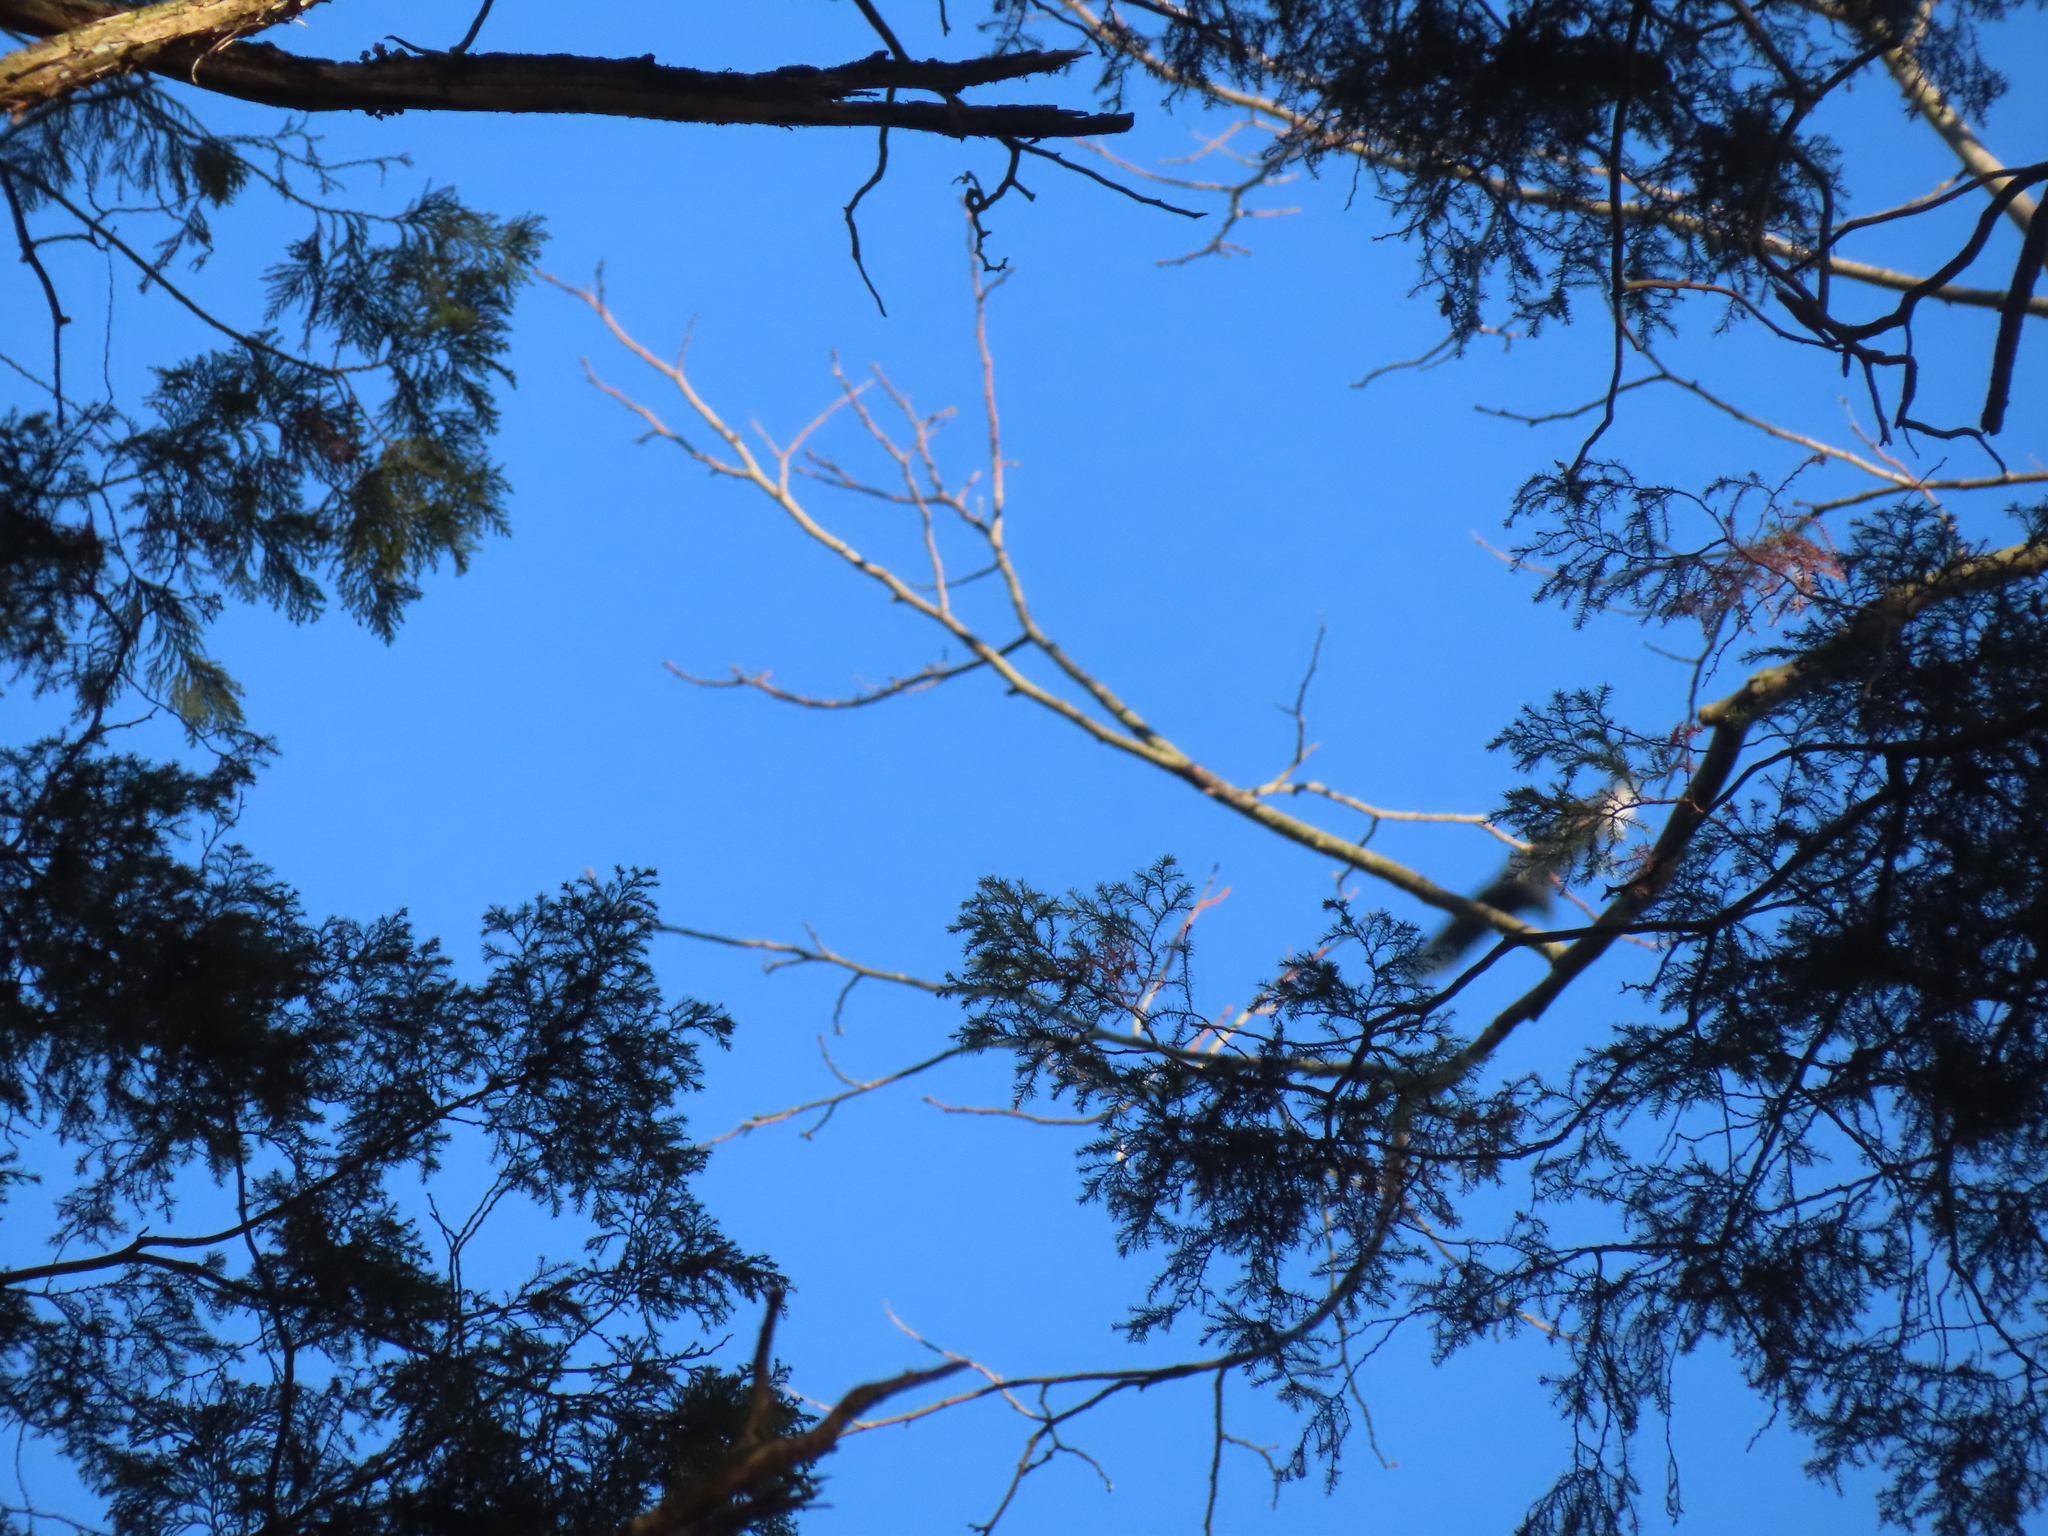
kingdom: Animalia
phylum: Chordata
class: Aves
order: Accipitriformes
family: Cathartidae
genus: Coragyps
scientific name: Coragyps atratus
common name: Black vulture
